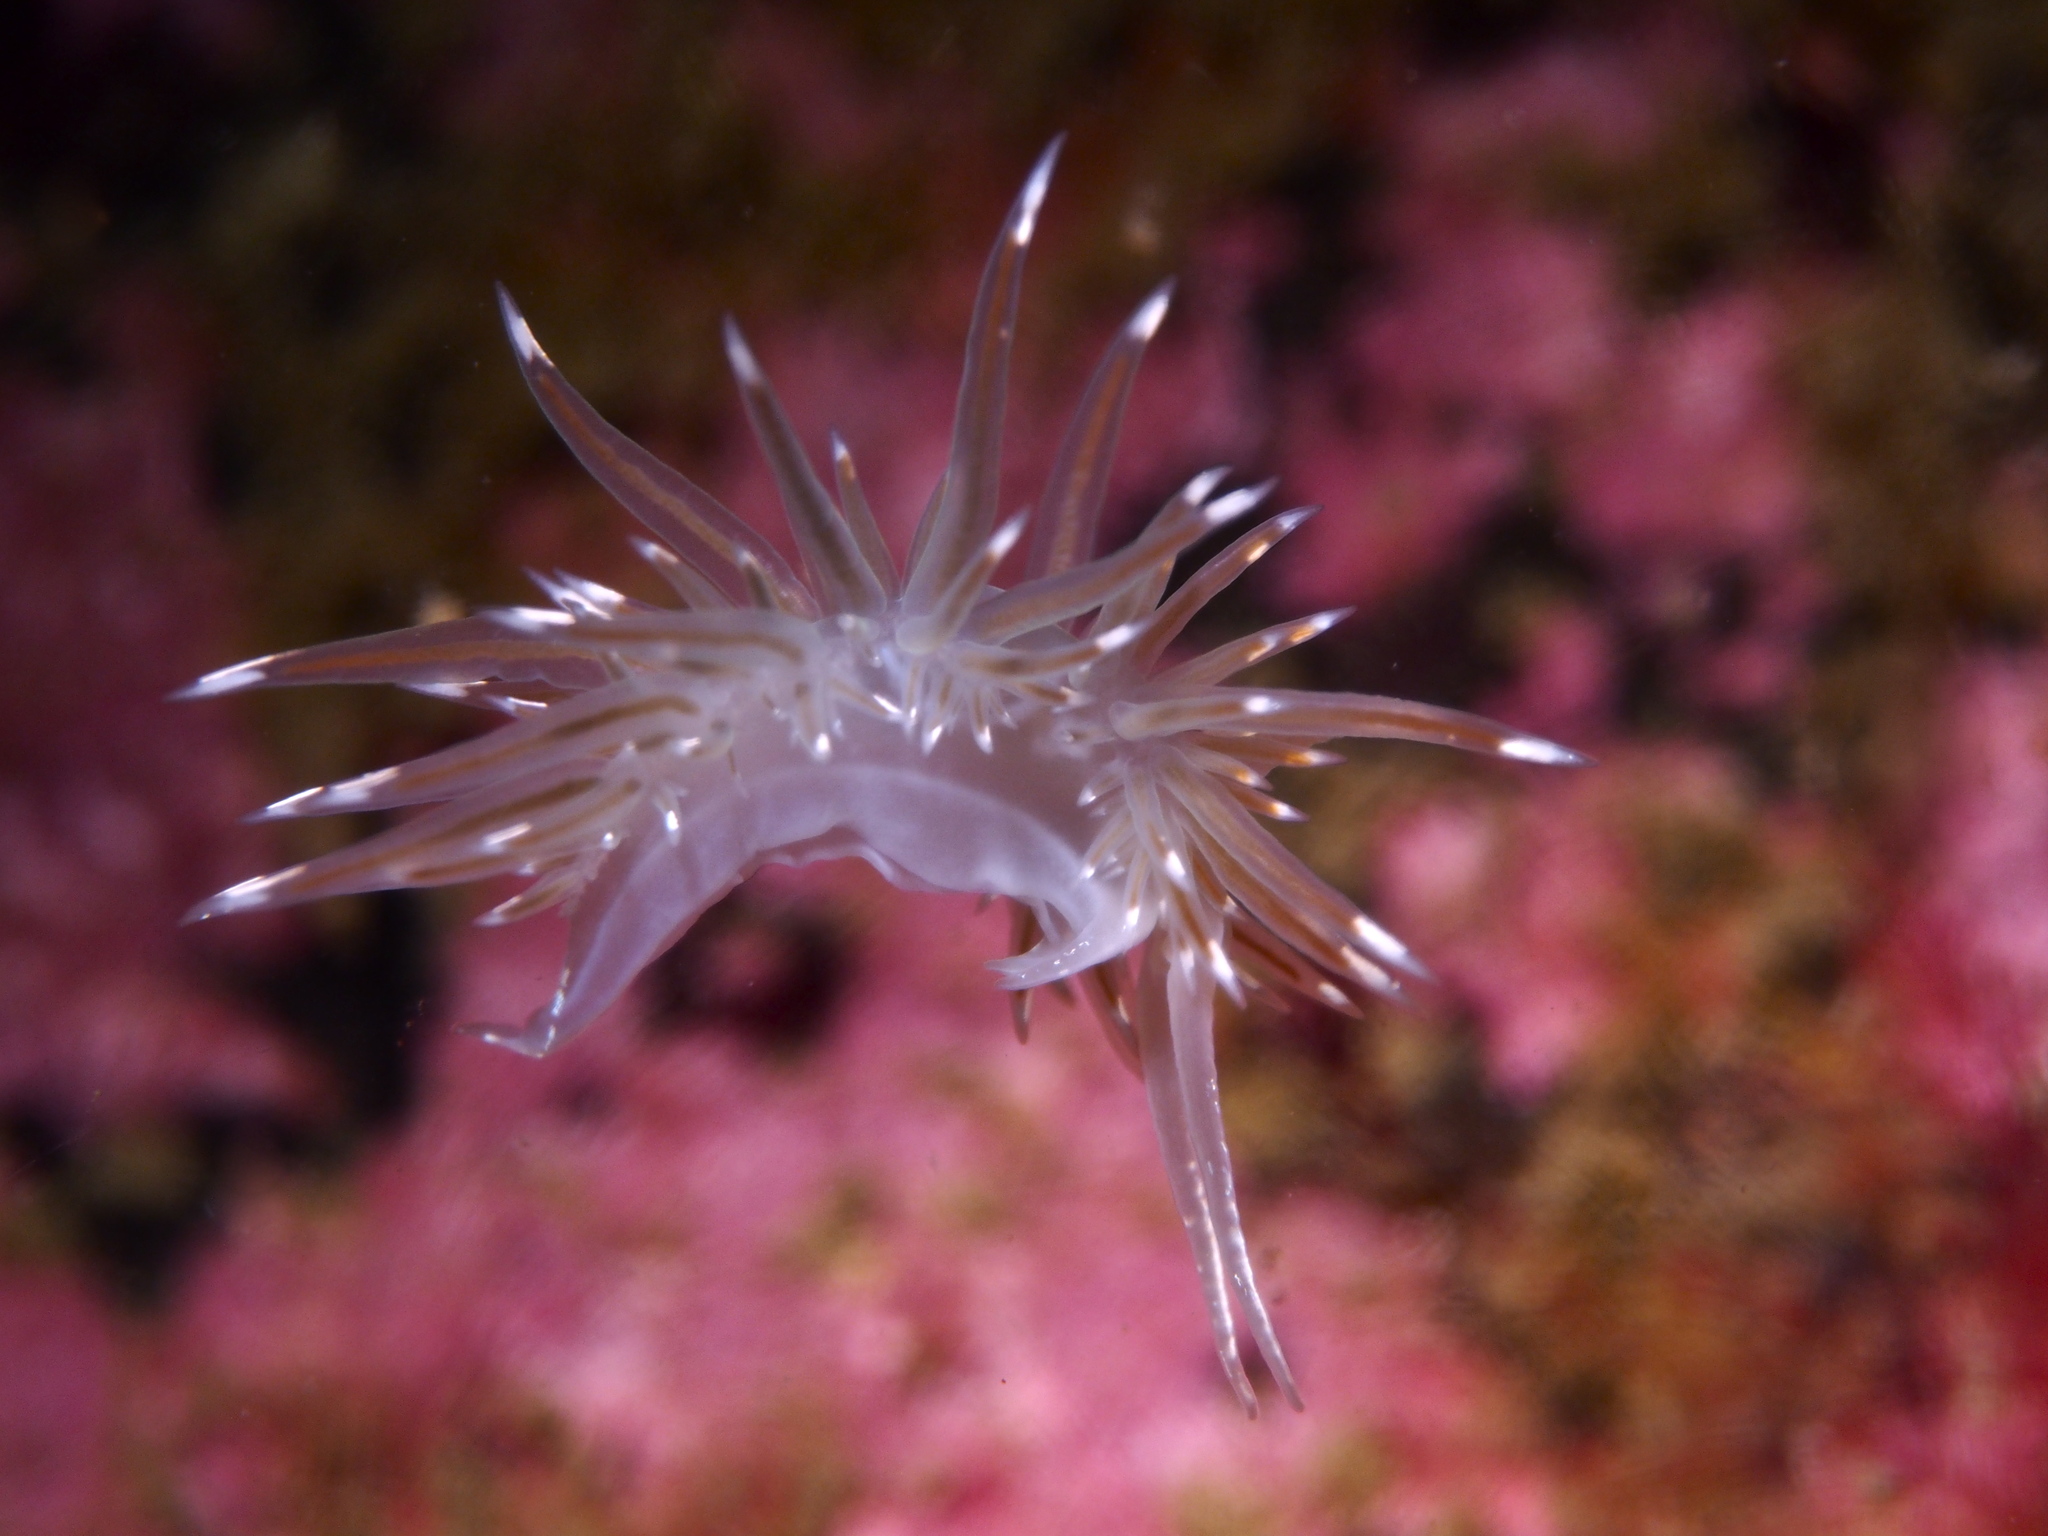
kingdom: Animalia
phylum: Mollusca
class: Gastropoda
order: Nudibranchia
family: Coryphellidae
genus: Coryphella
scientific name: Coryphella lineata
